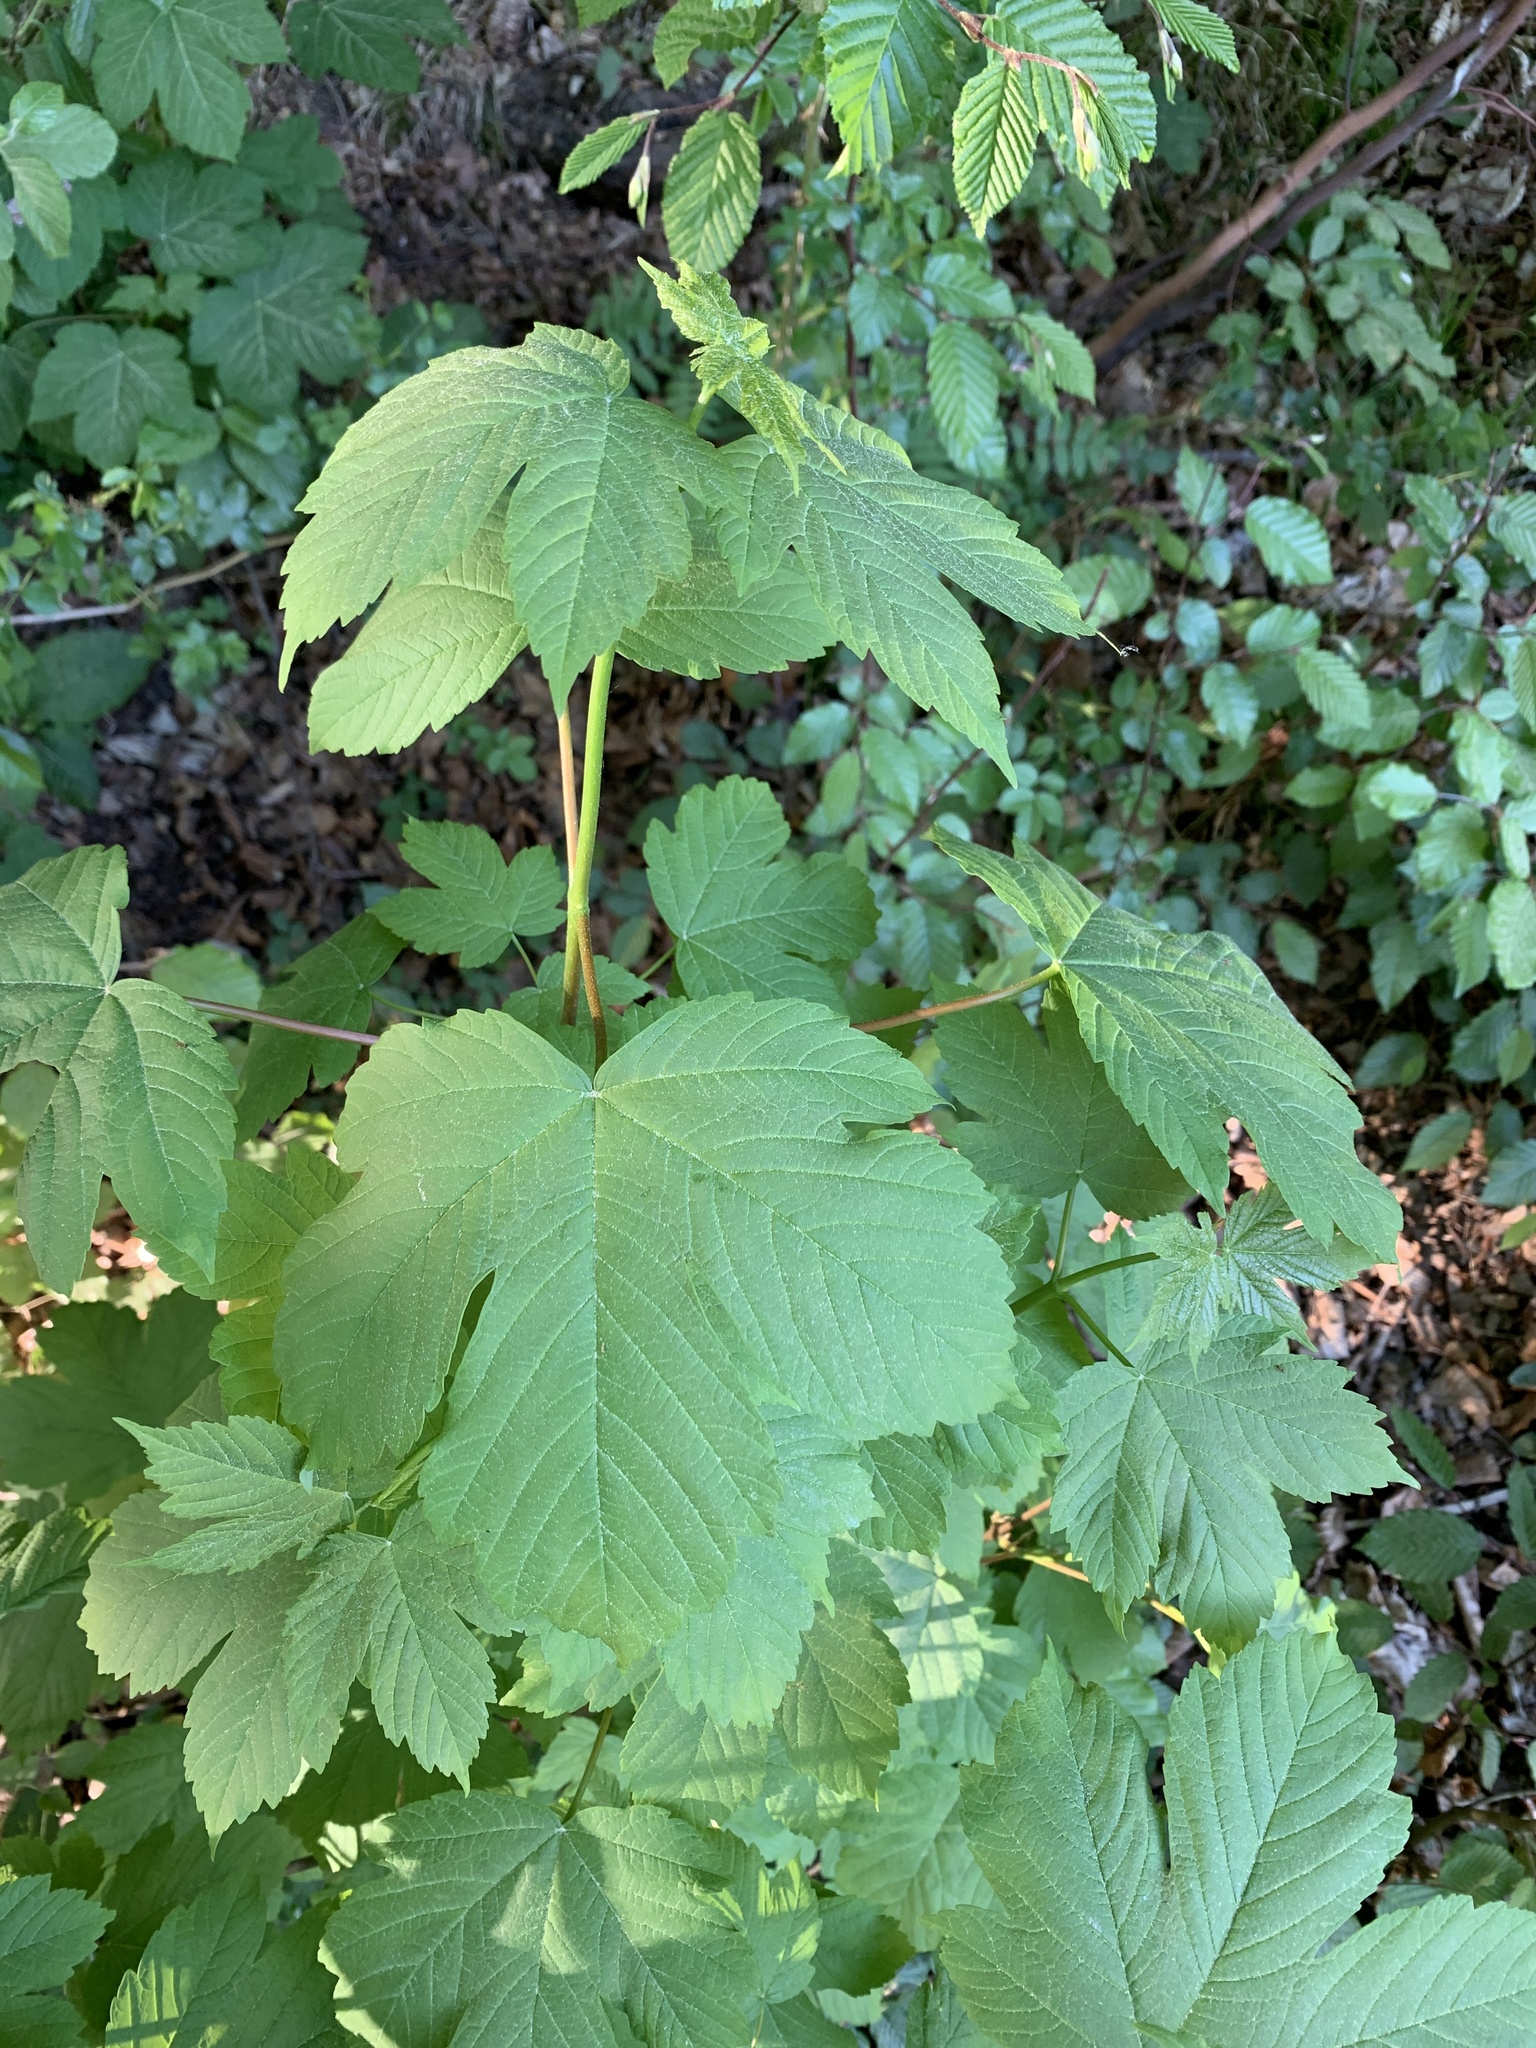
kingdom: Plantae
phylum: Tracheophyta
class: Magnoliopsida
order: Sapindales
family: Sapindaceae
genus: Acer
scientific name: Acer pseudoplatanus
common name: Sycamore
